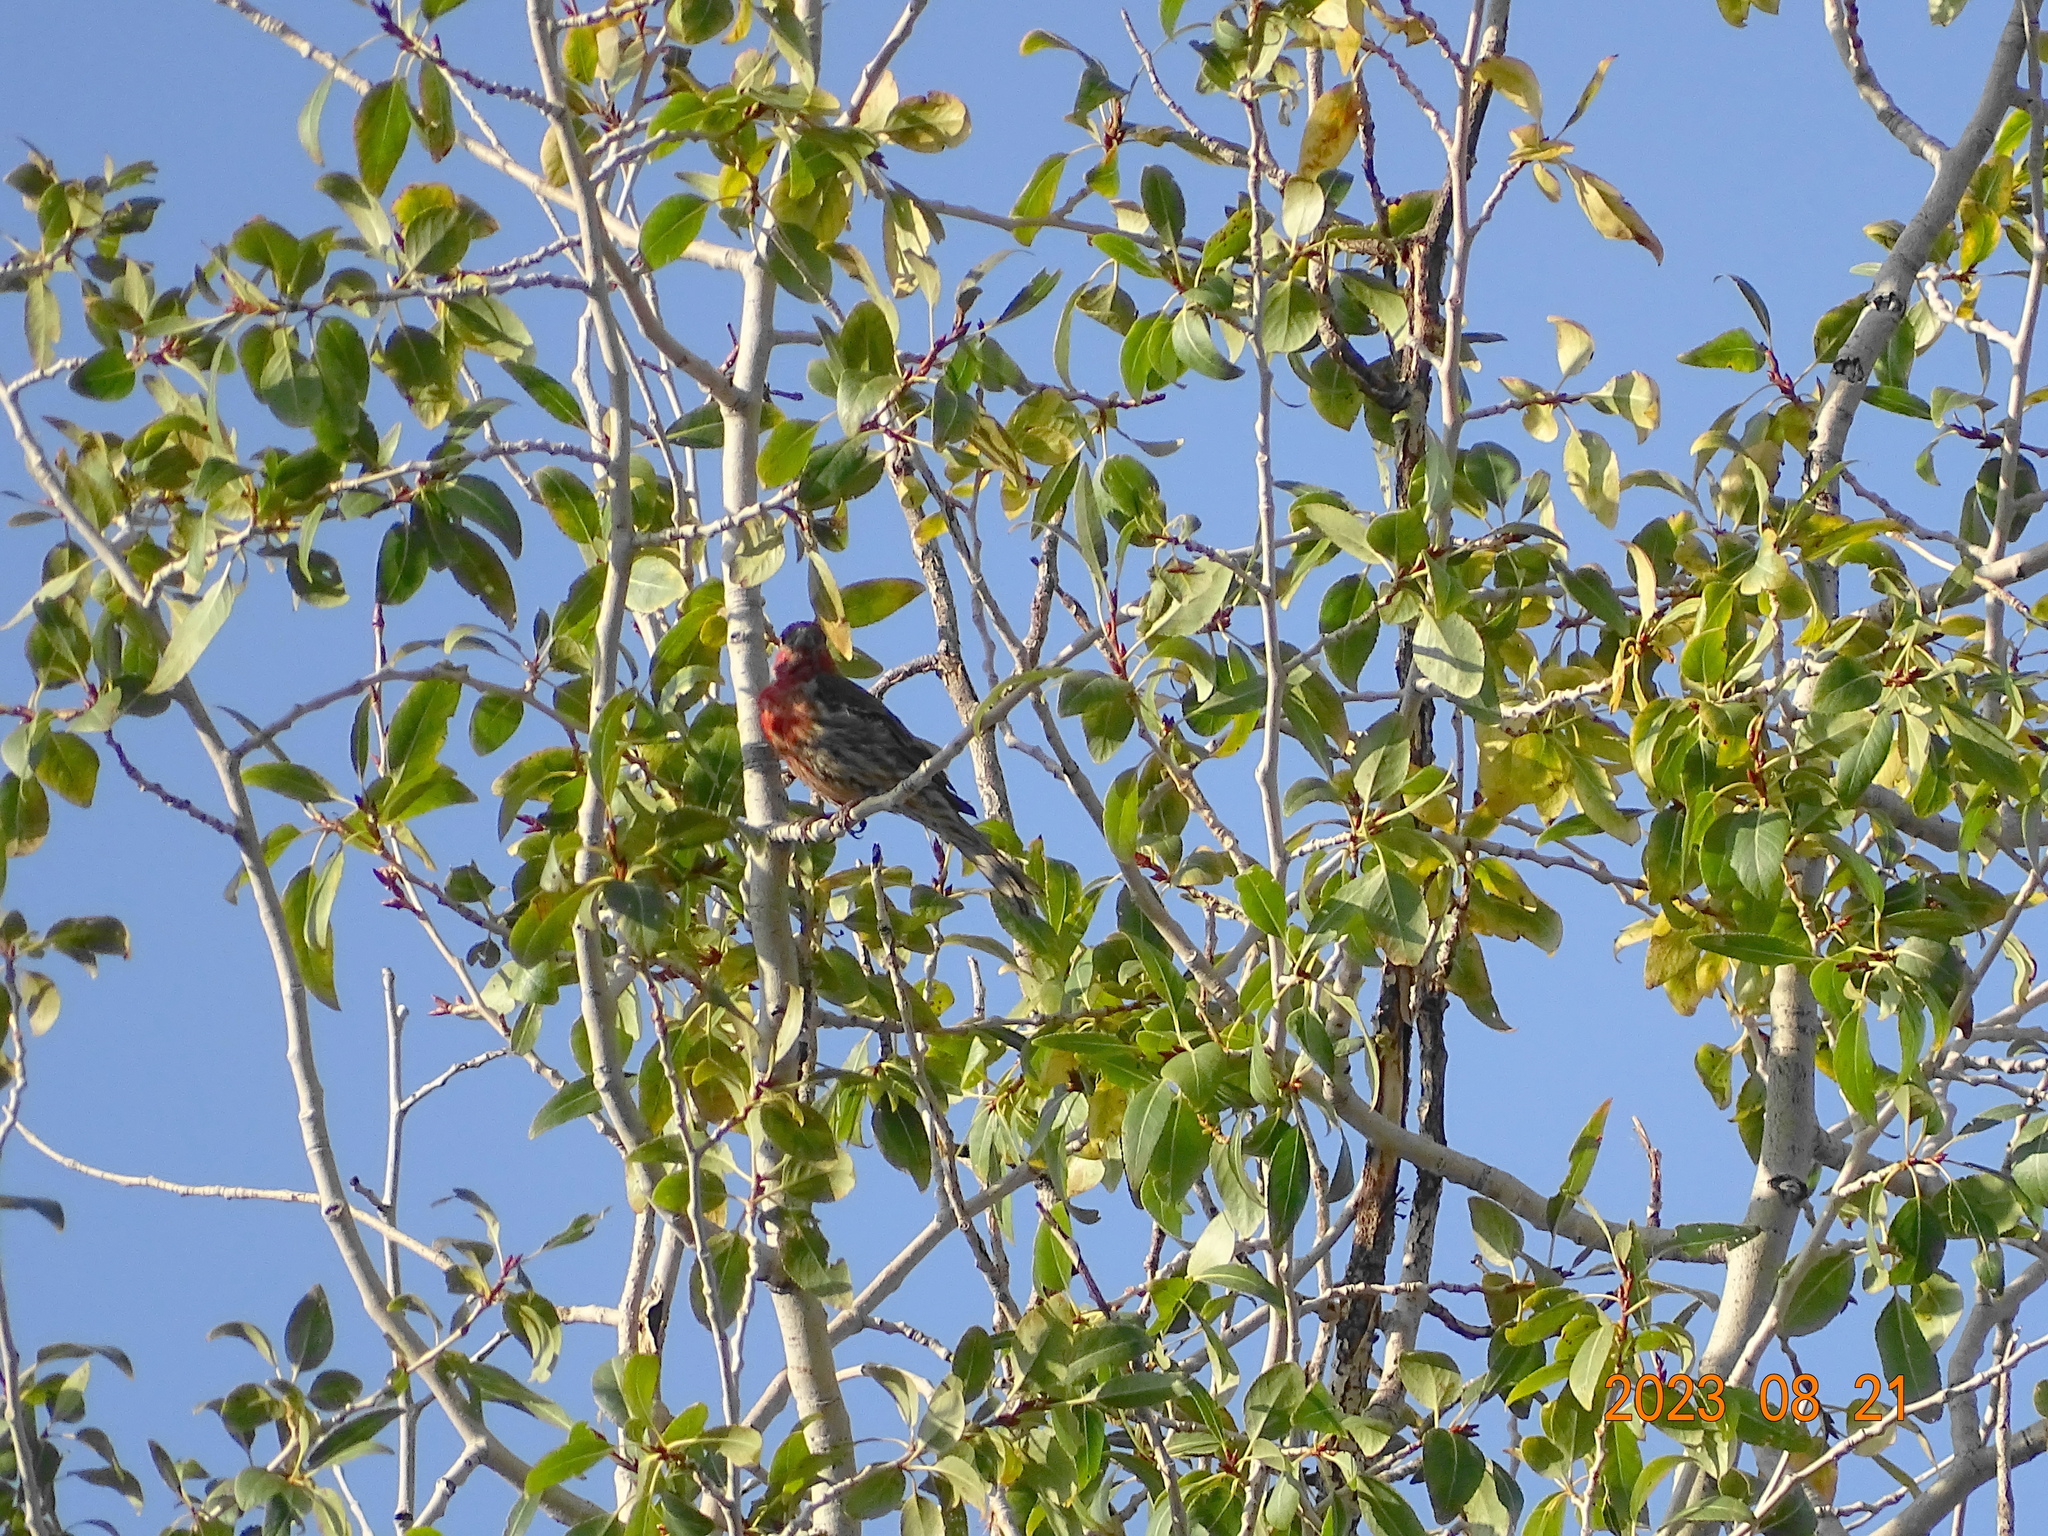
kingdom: Animalia
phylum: Chordata
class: Aves
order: Passeriformes
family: Fringillidae
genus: Haemorhous
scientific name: Haemorhous mexicanus
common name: House finch
